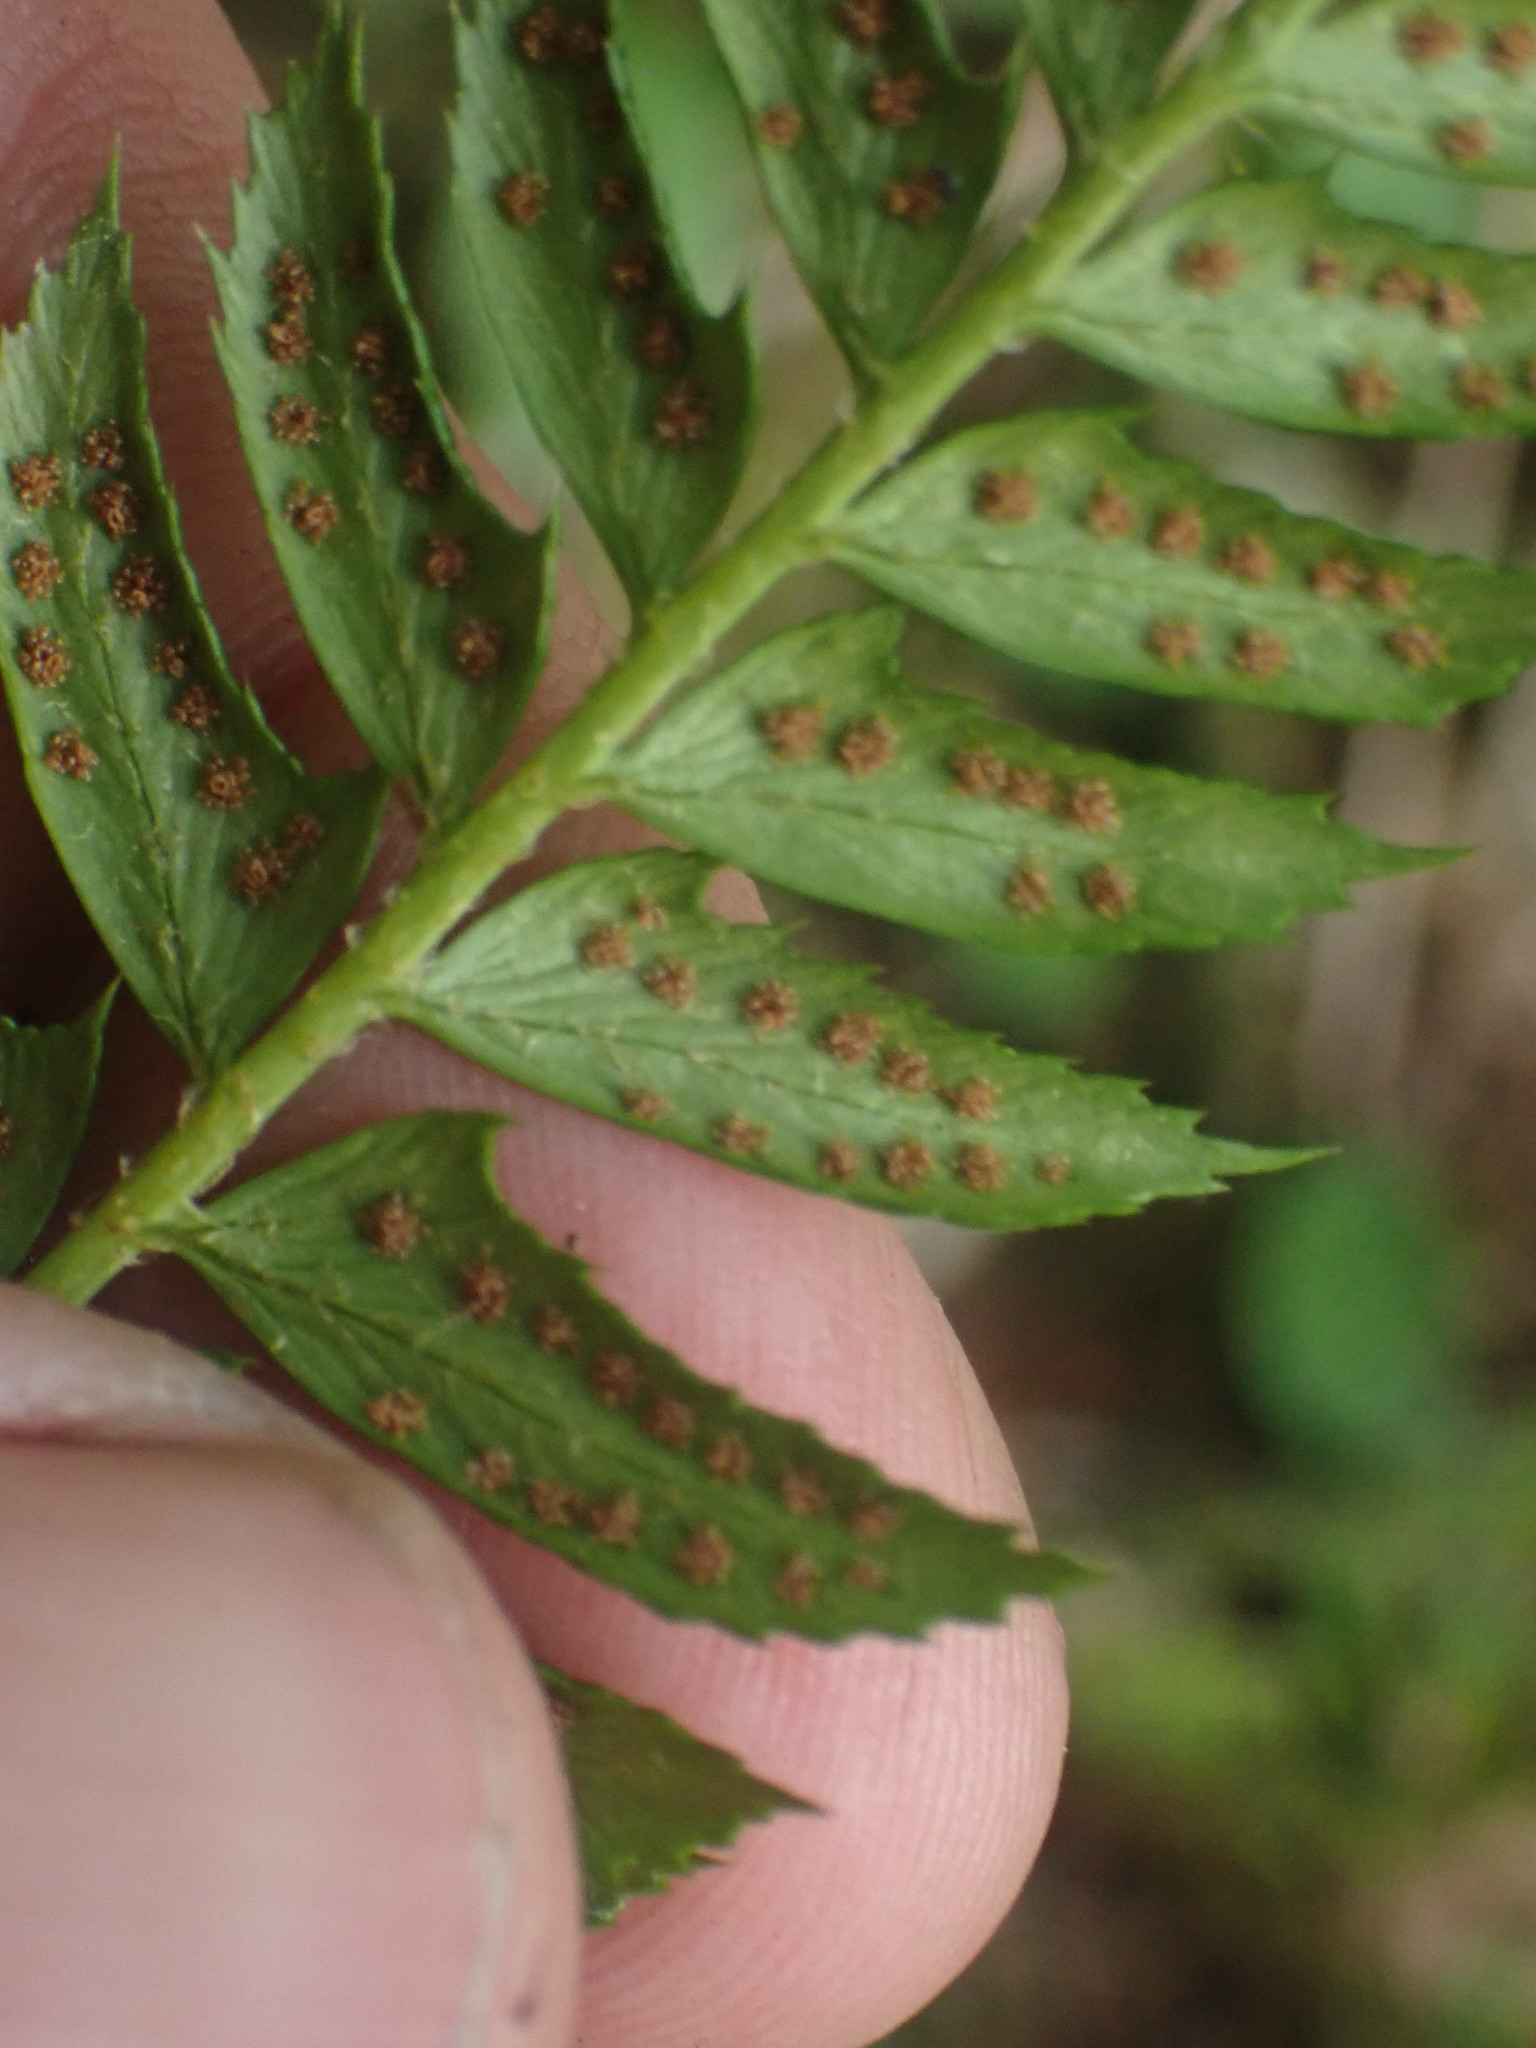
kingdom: Plantae
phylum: Tracheophyta
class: Polypodiopsida
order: Polypodiales
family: Dryopteridaceae
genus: Polystichum
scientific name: Polystichum lonchitis
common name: Holly fern
